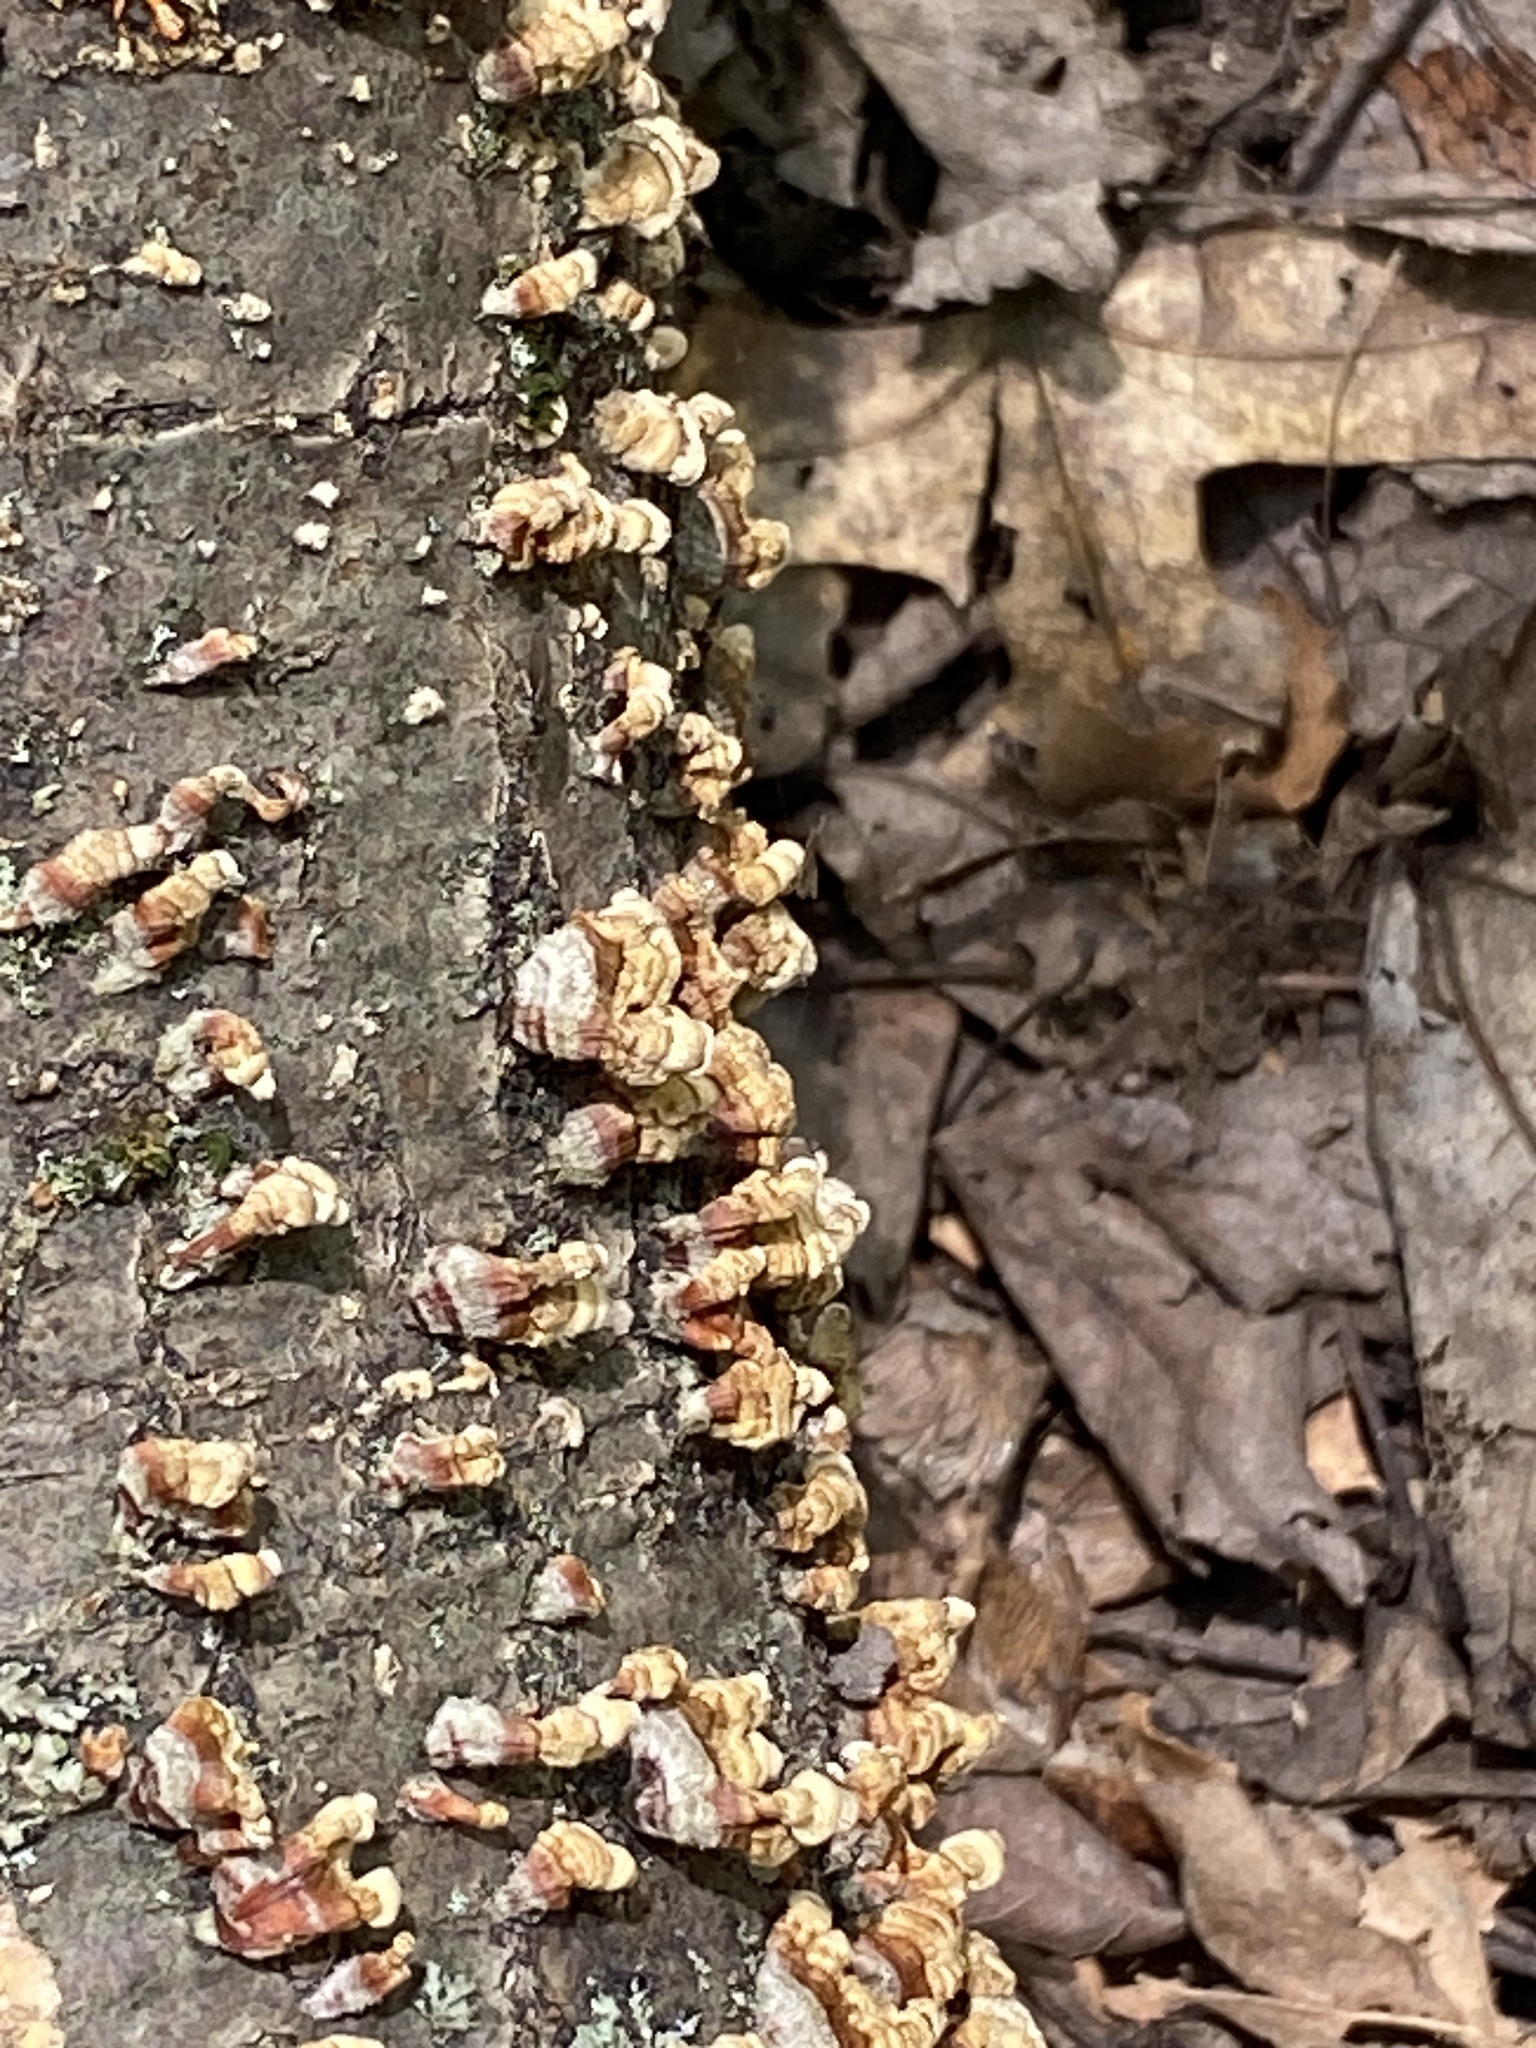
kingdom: Fungi
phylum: Basidiomycota
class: Agaricomycetes
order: Russulales
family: Stereaceae
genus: Stereum
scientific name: Stereum complicatum
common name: Crowded parchment
